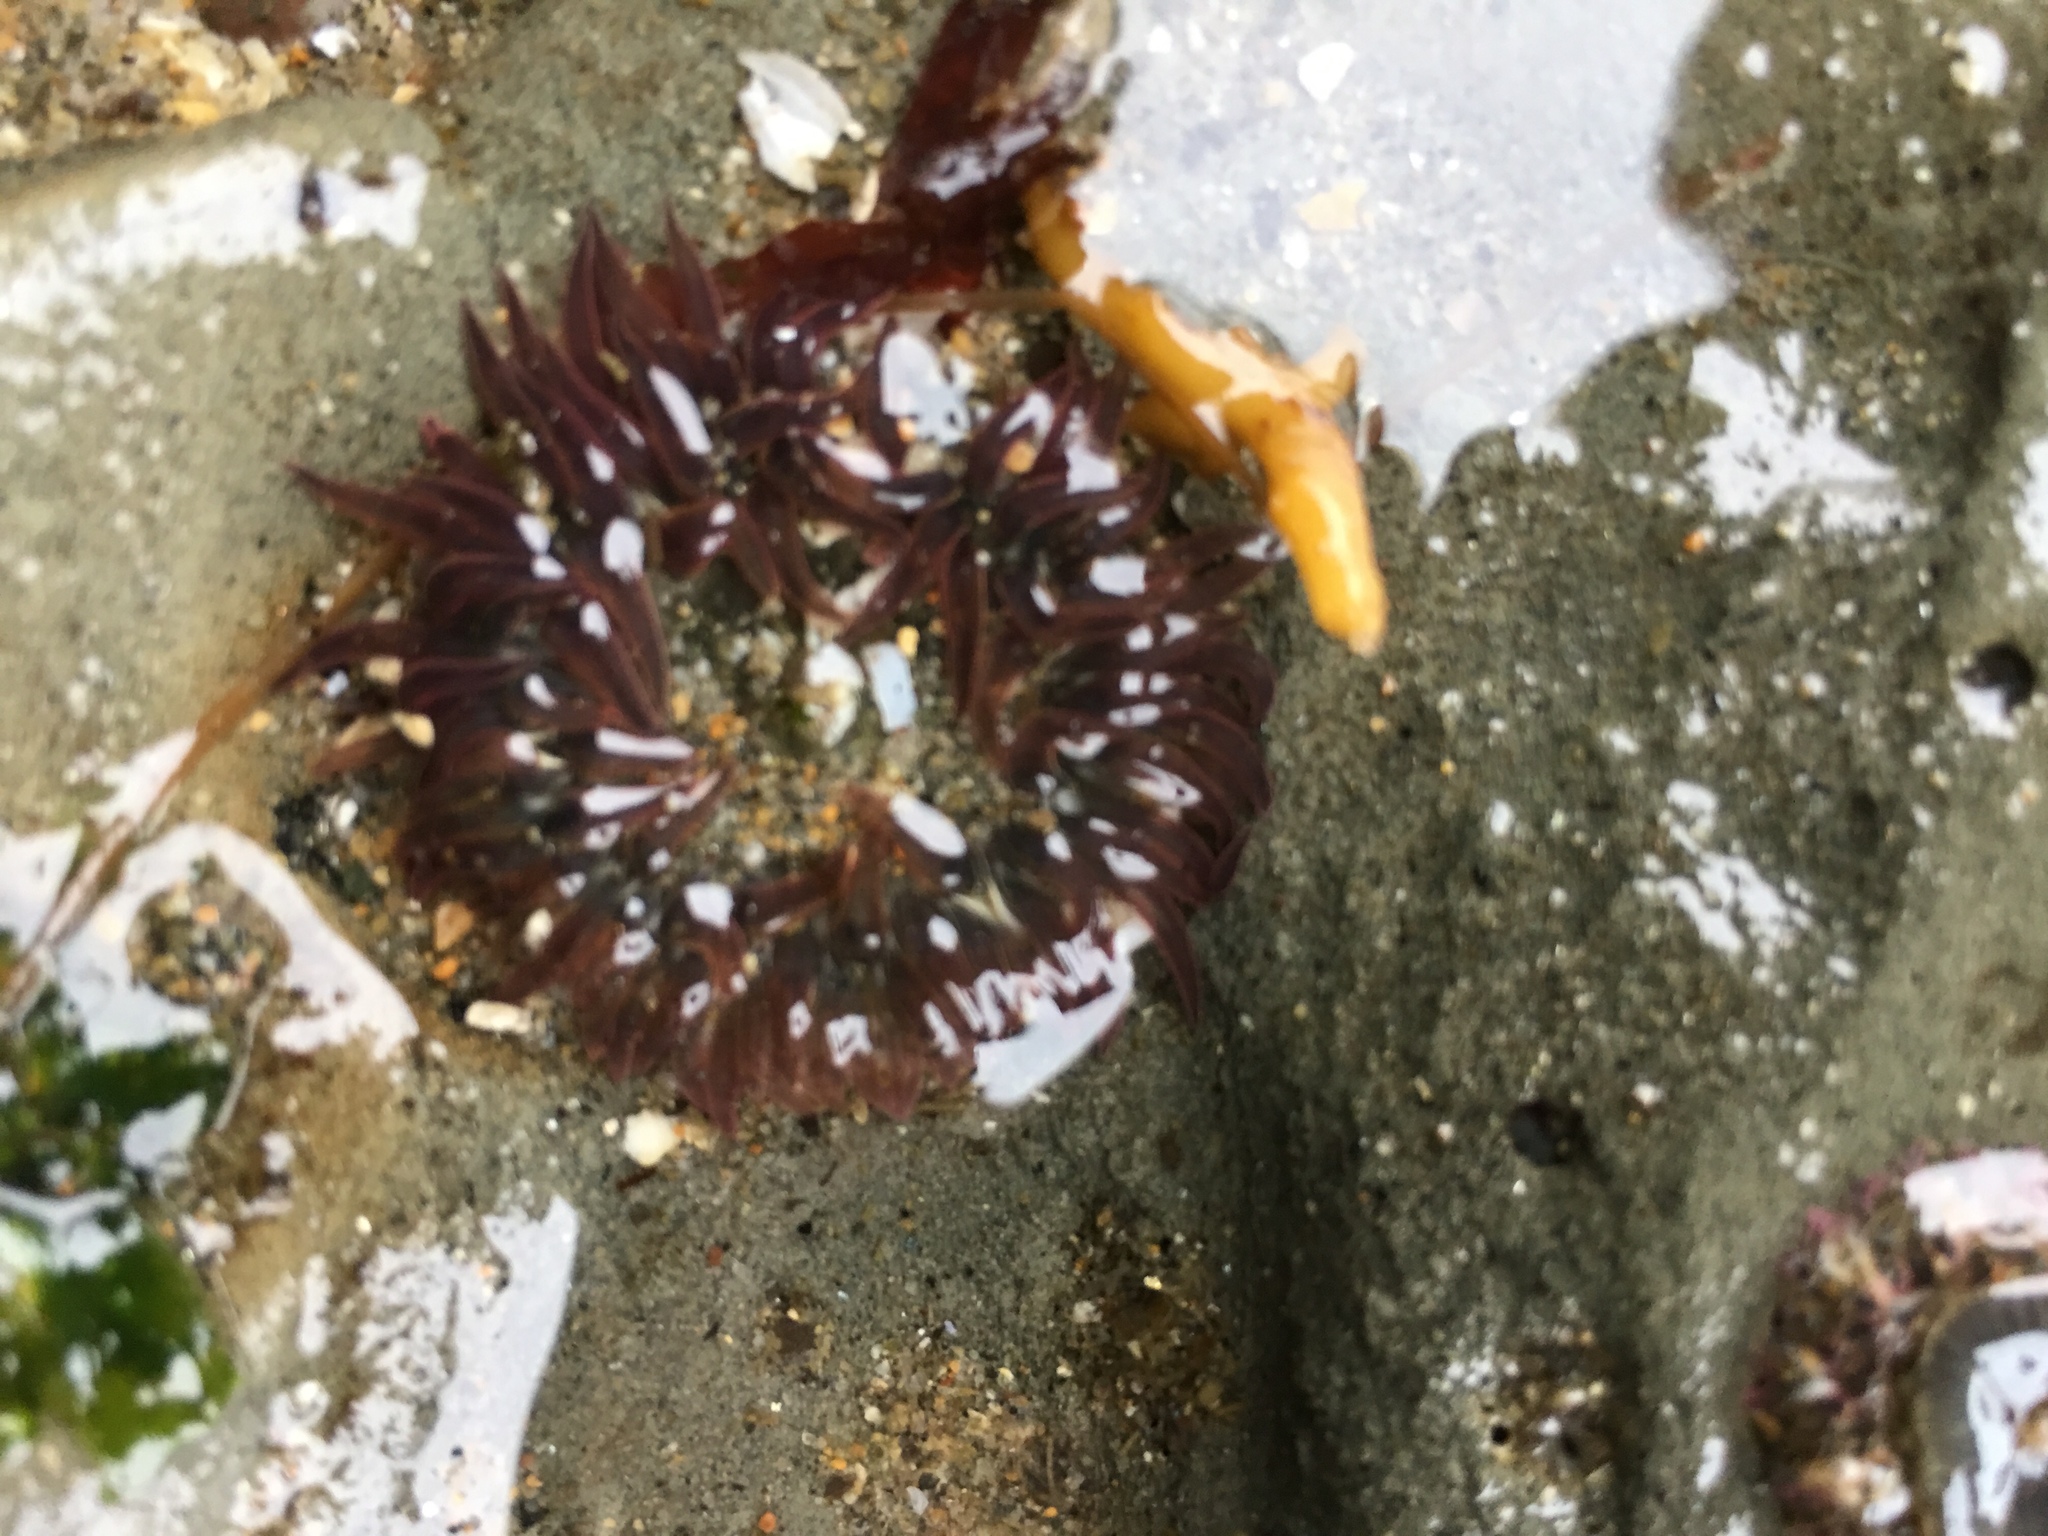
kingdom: Animalia
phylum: Cnidaria
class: Anthozoa
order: Actiniaria
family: Actiniidae
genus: Anthopleura
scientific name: Anthopleura artemisia
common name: Buried sea anemone
